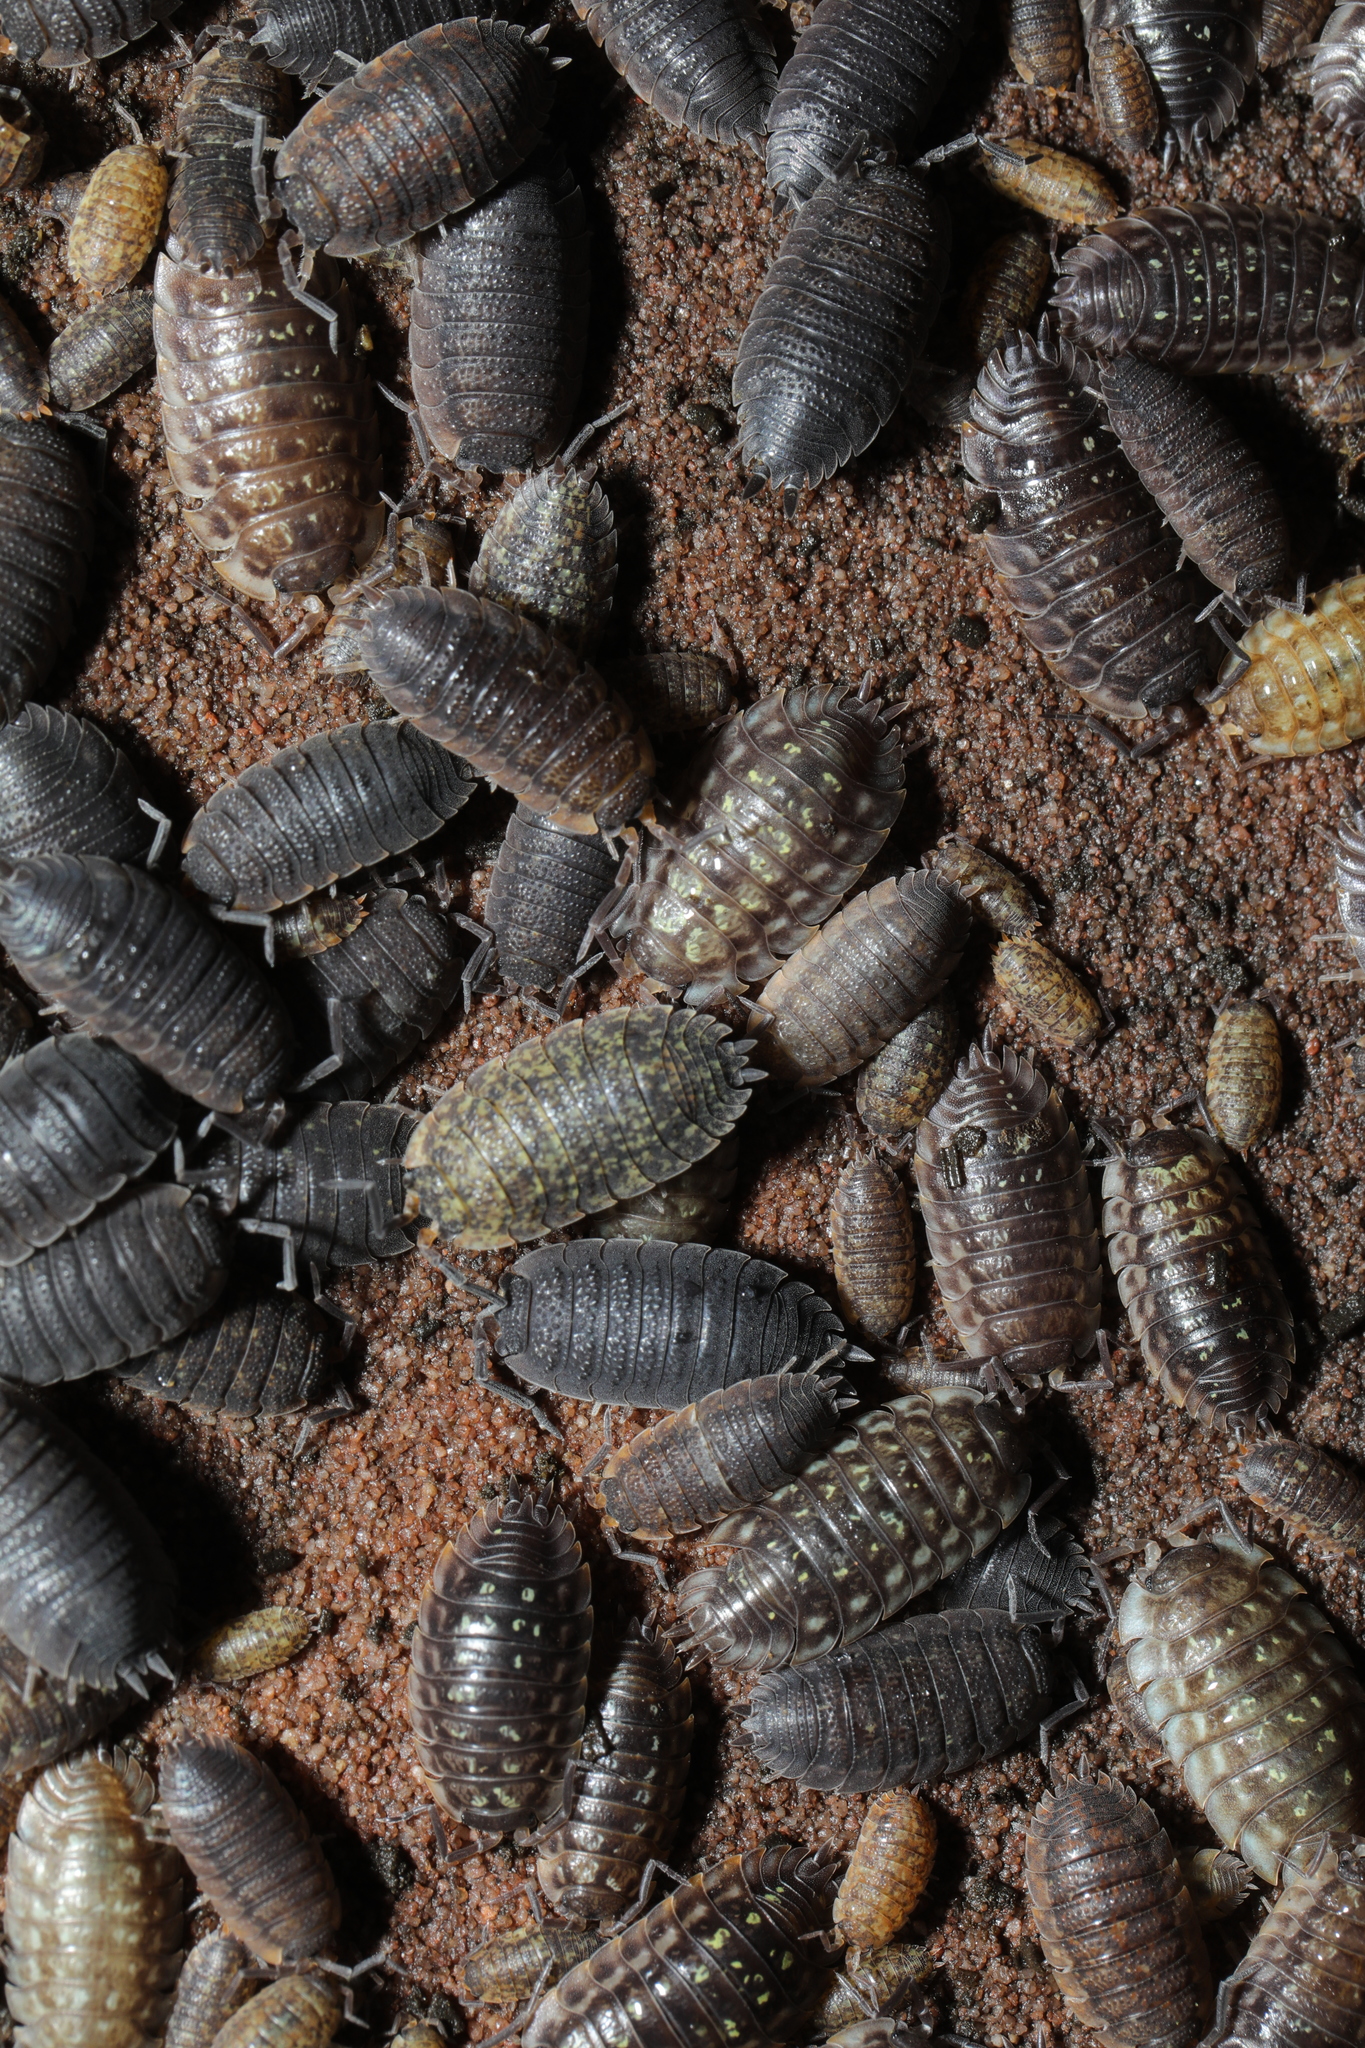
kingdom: Animalia
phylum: Arthropoda
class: Malacostraca
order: Isopoda
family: Oniscidae
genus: Oniscus
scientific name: Oniscus asellus
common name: Common shiny woodlouse
